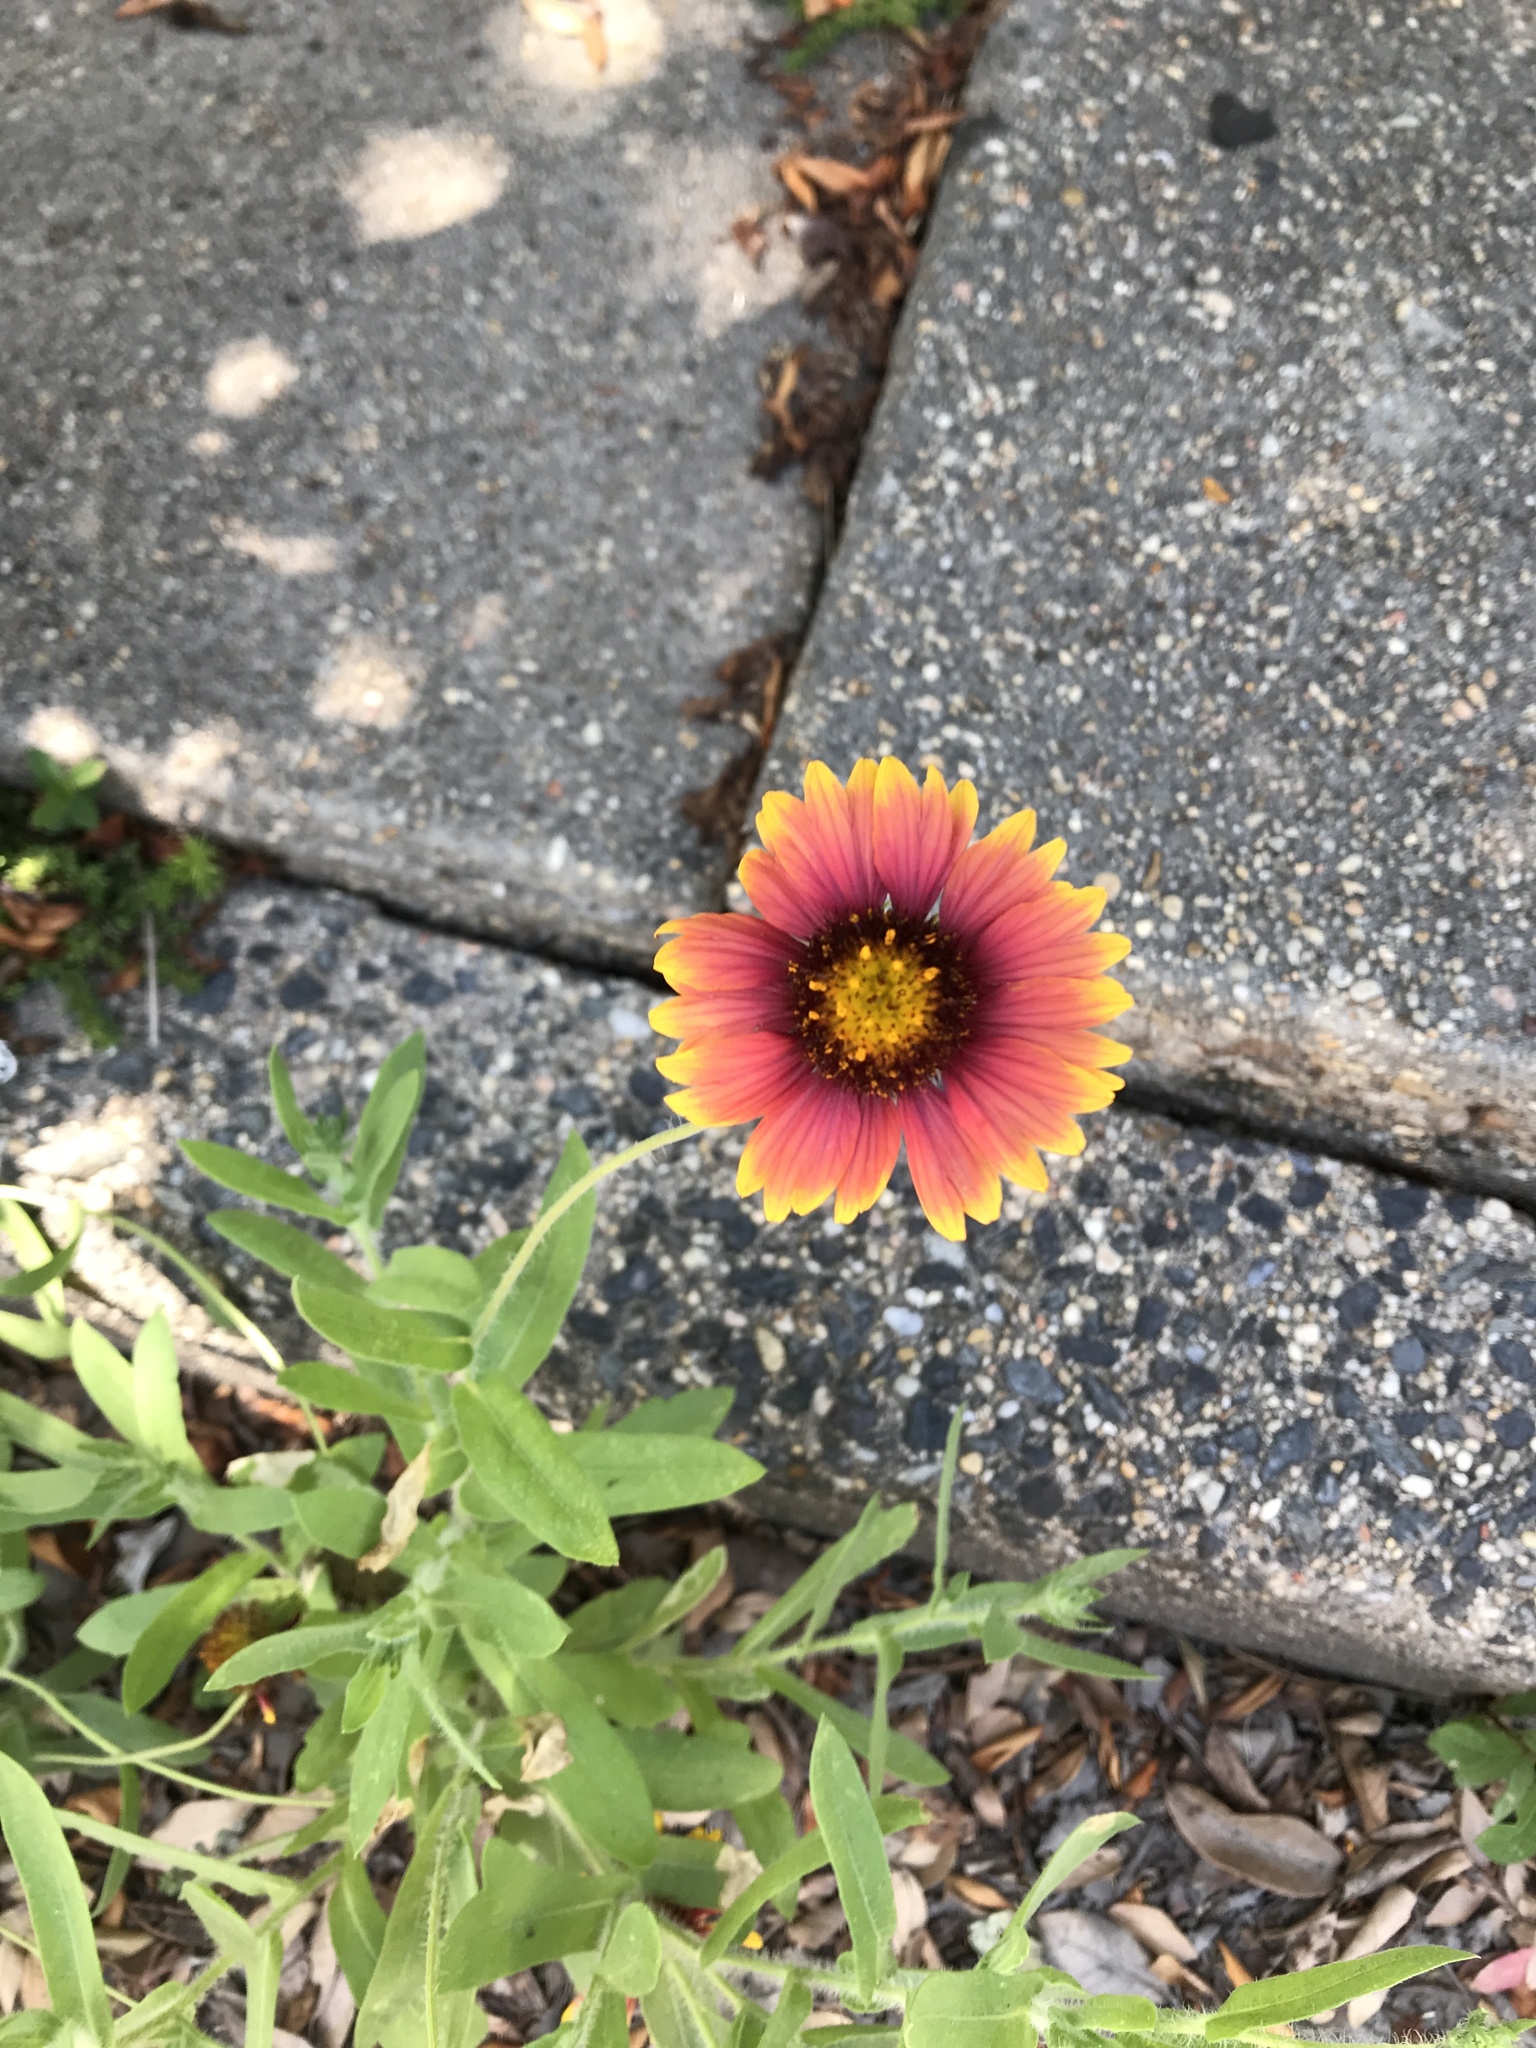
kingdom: Plantae
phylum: Tracheophyta
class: Magnoliopsida
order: Asterales
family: Asteraceae
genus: Gaillardia
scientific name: Gaillardia pulchella
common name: Firewheel
